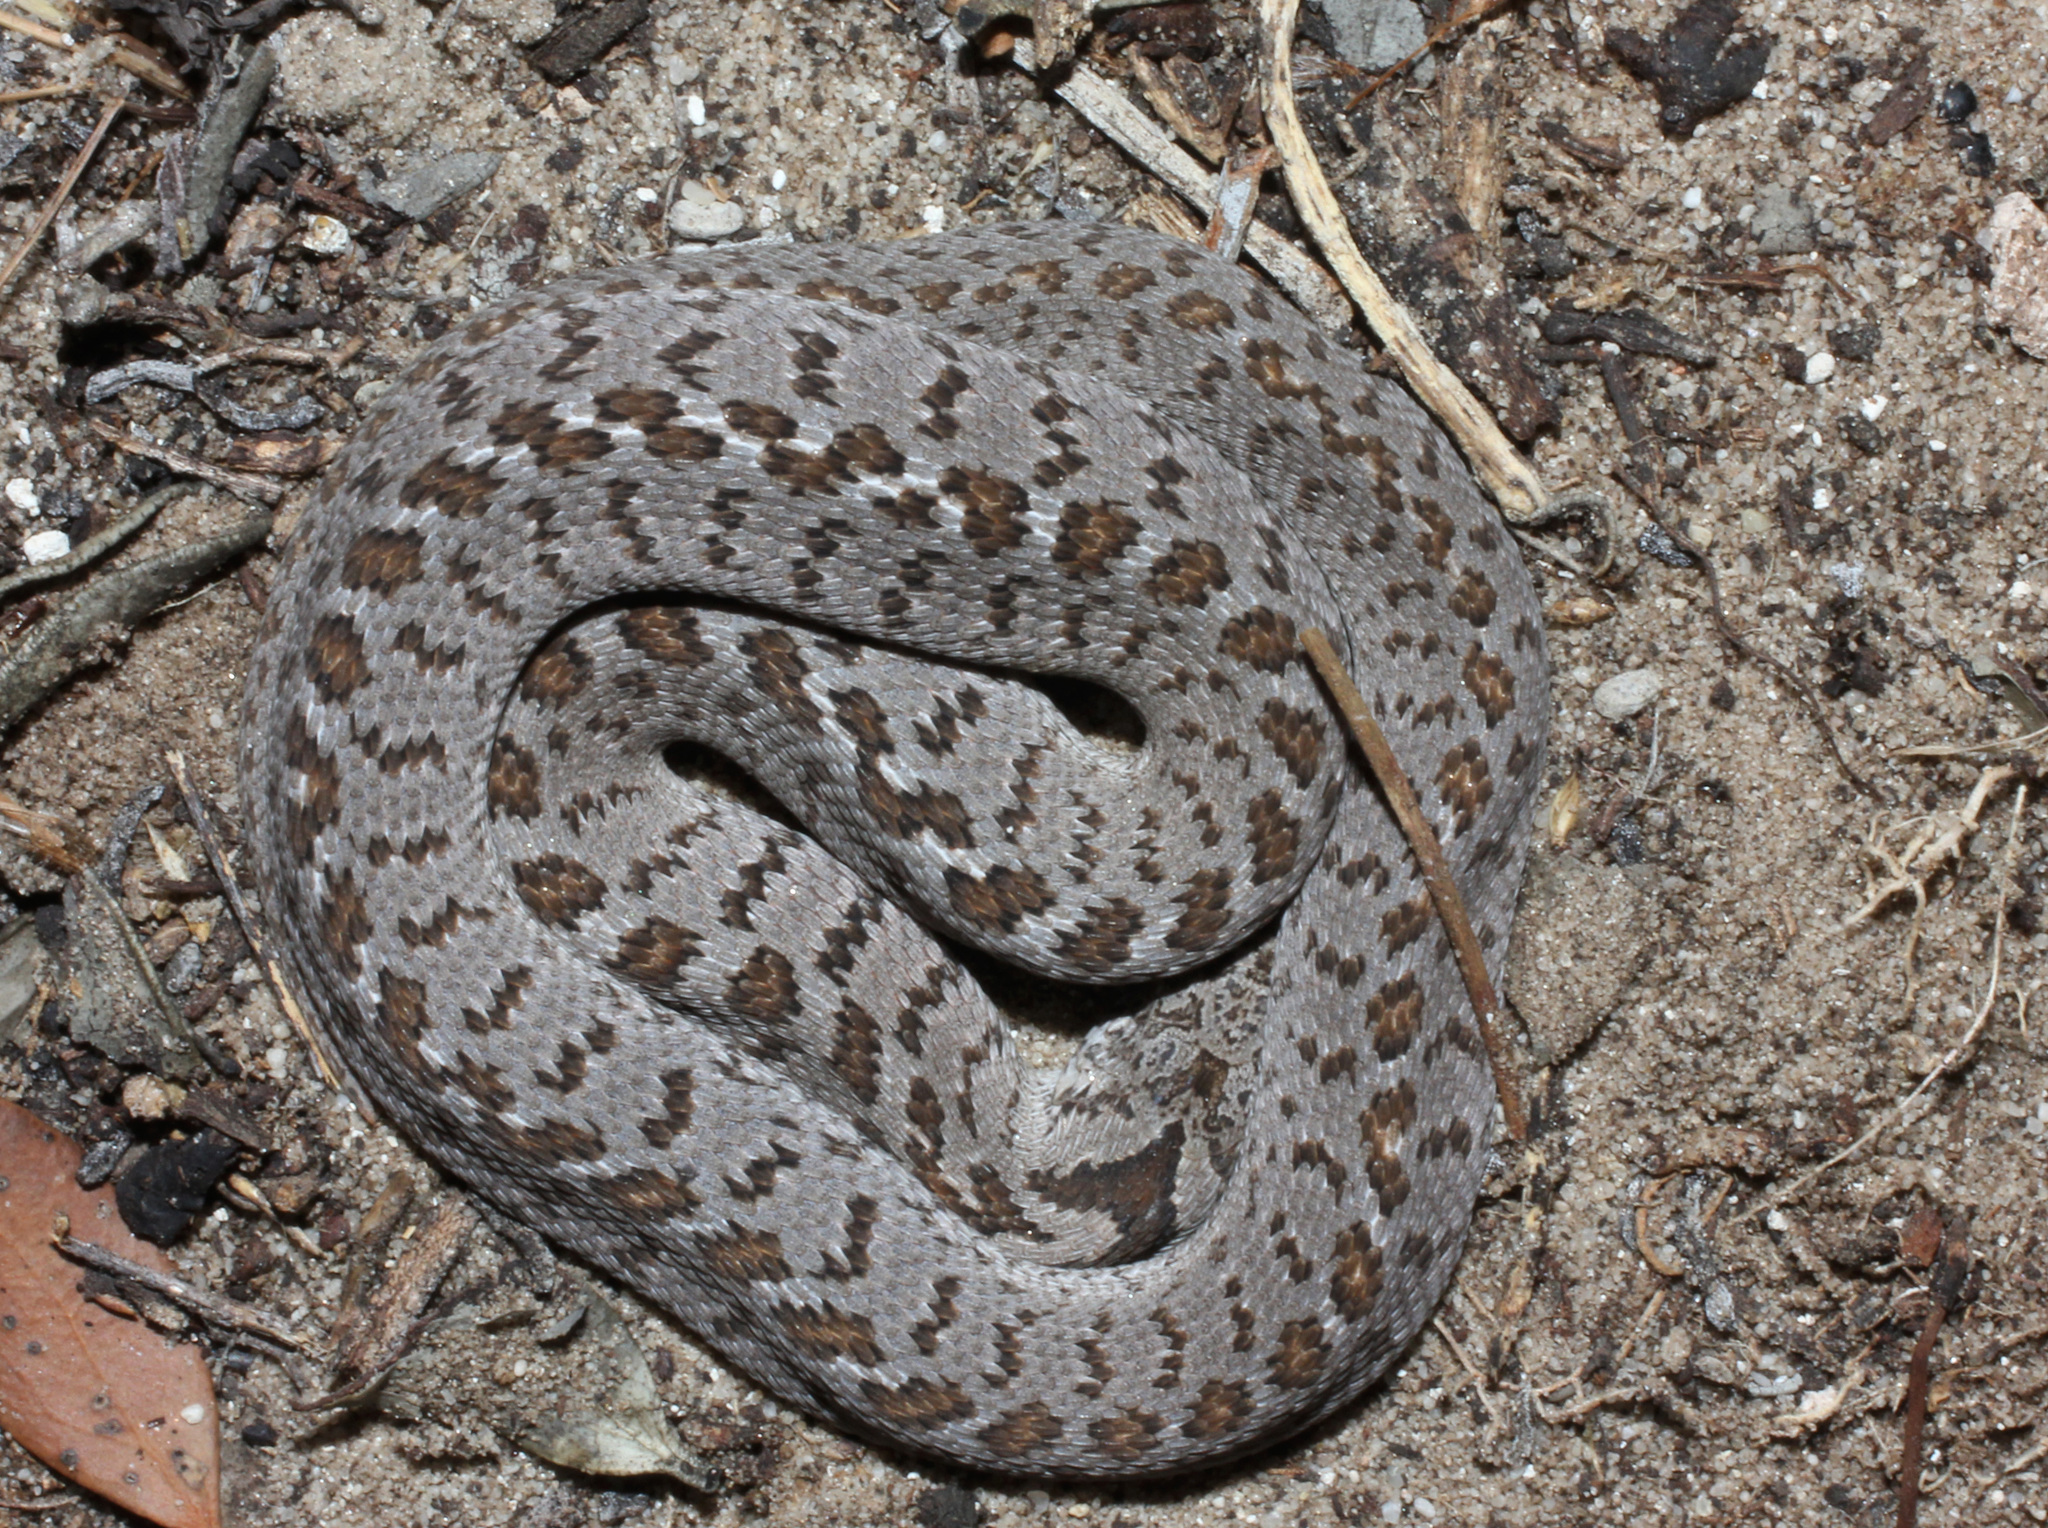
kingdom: Animalia
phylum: Chordata
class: Squamata
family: Colubridae
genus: Dasypeltis
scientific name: Dasypeltis scabra
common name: Common egg eater
